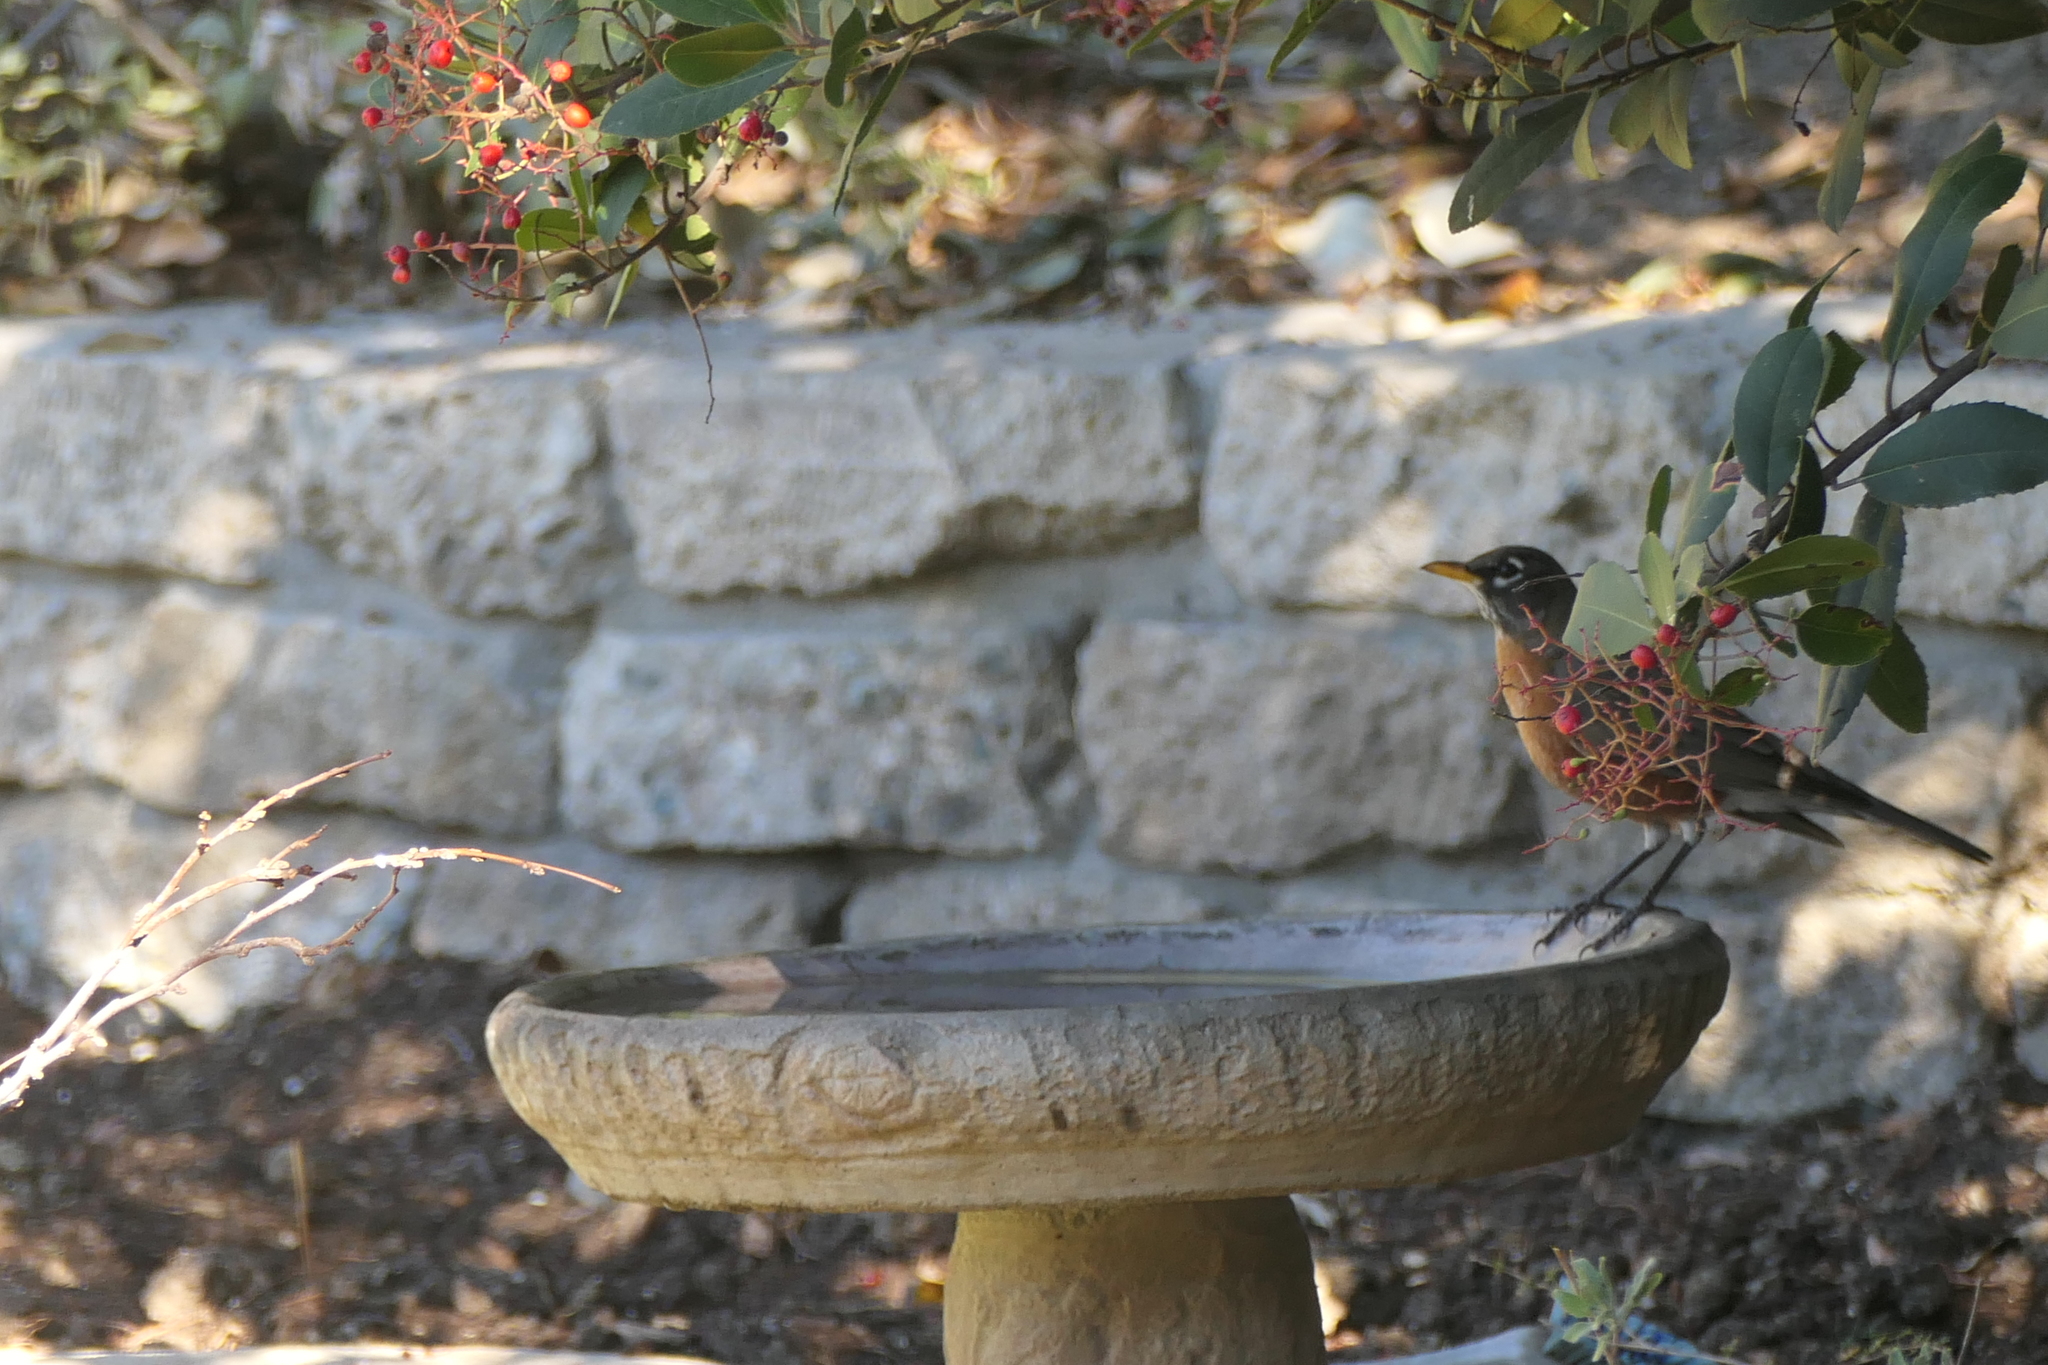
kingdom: Animalia
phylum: Chordata
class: Aves
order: Passeriformes
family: Turdidae
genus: Turdus
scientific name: Turdus migratorius
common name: American robin
